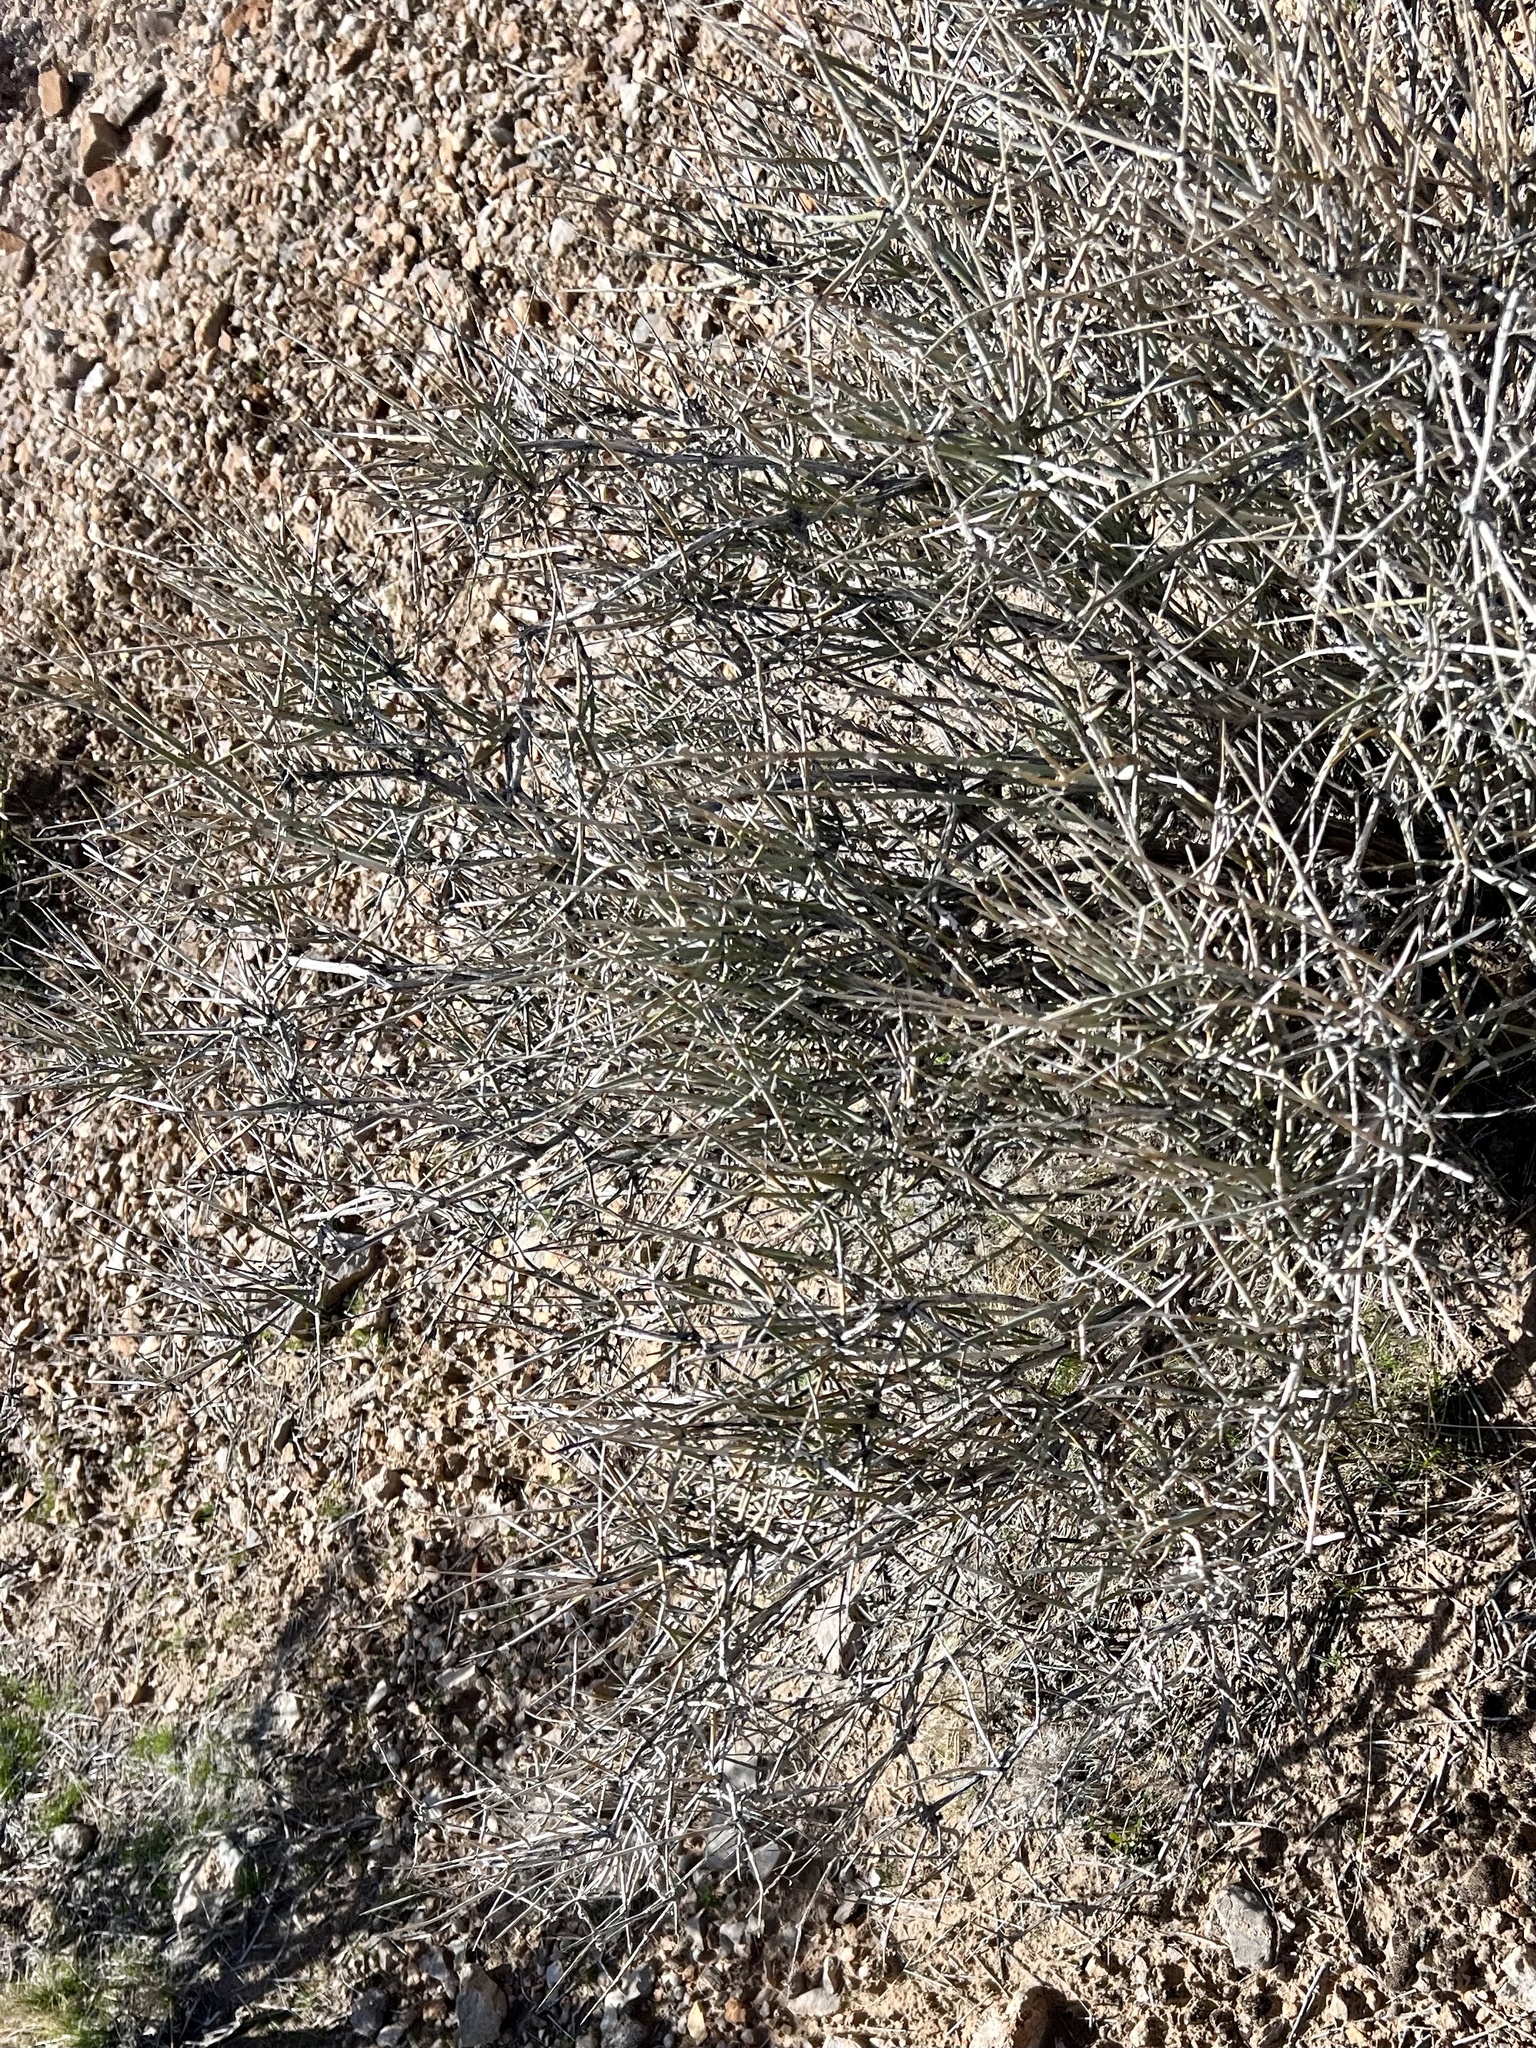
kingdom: Plantae
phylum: Tracheophyta
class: Gnetopsida
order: Ephedrales
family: Ephedraceae
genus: Ephedra
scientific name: Ephedra nevadensis
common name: Gray ephedra
